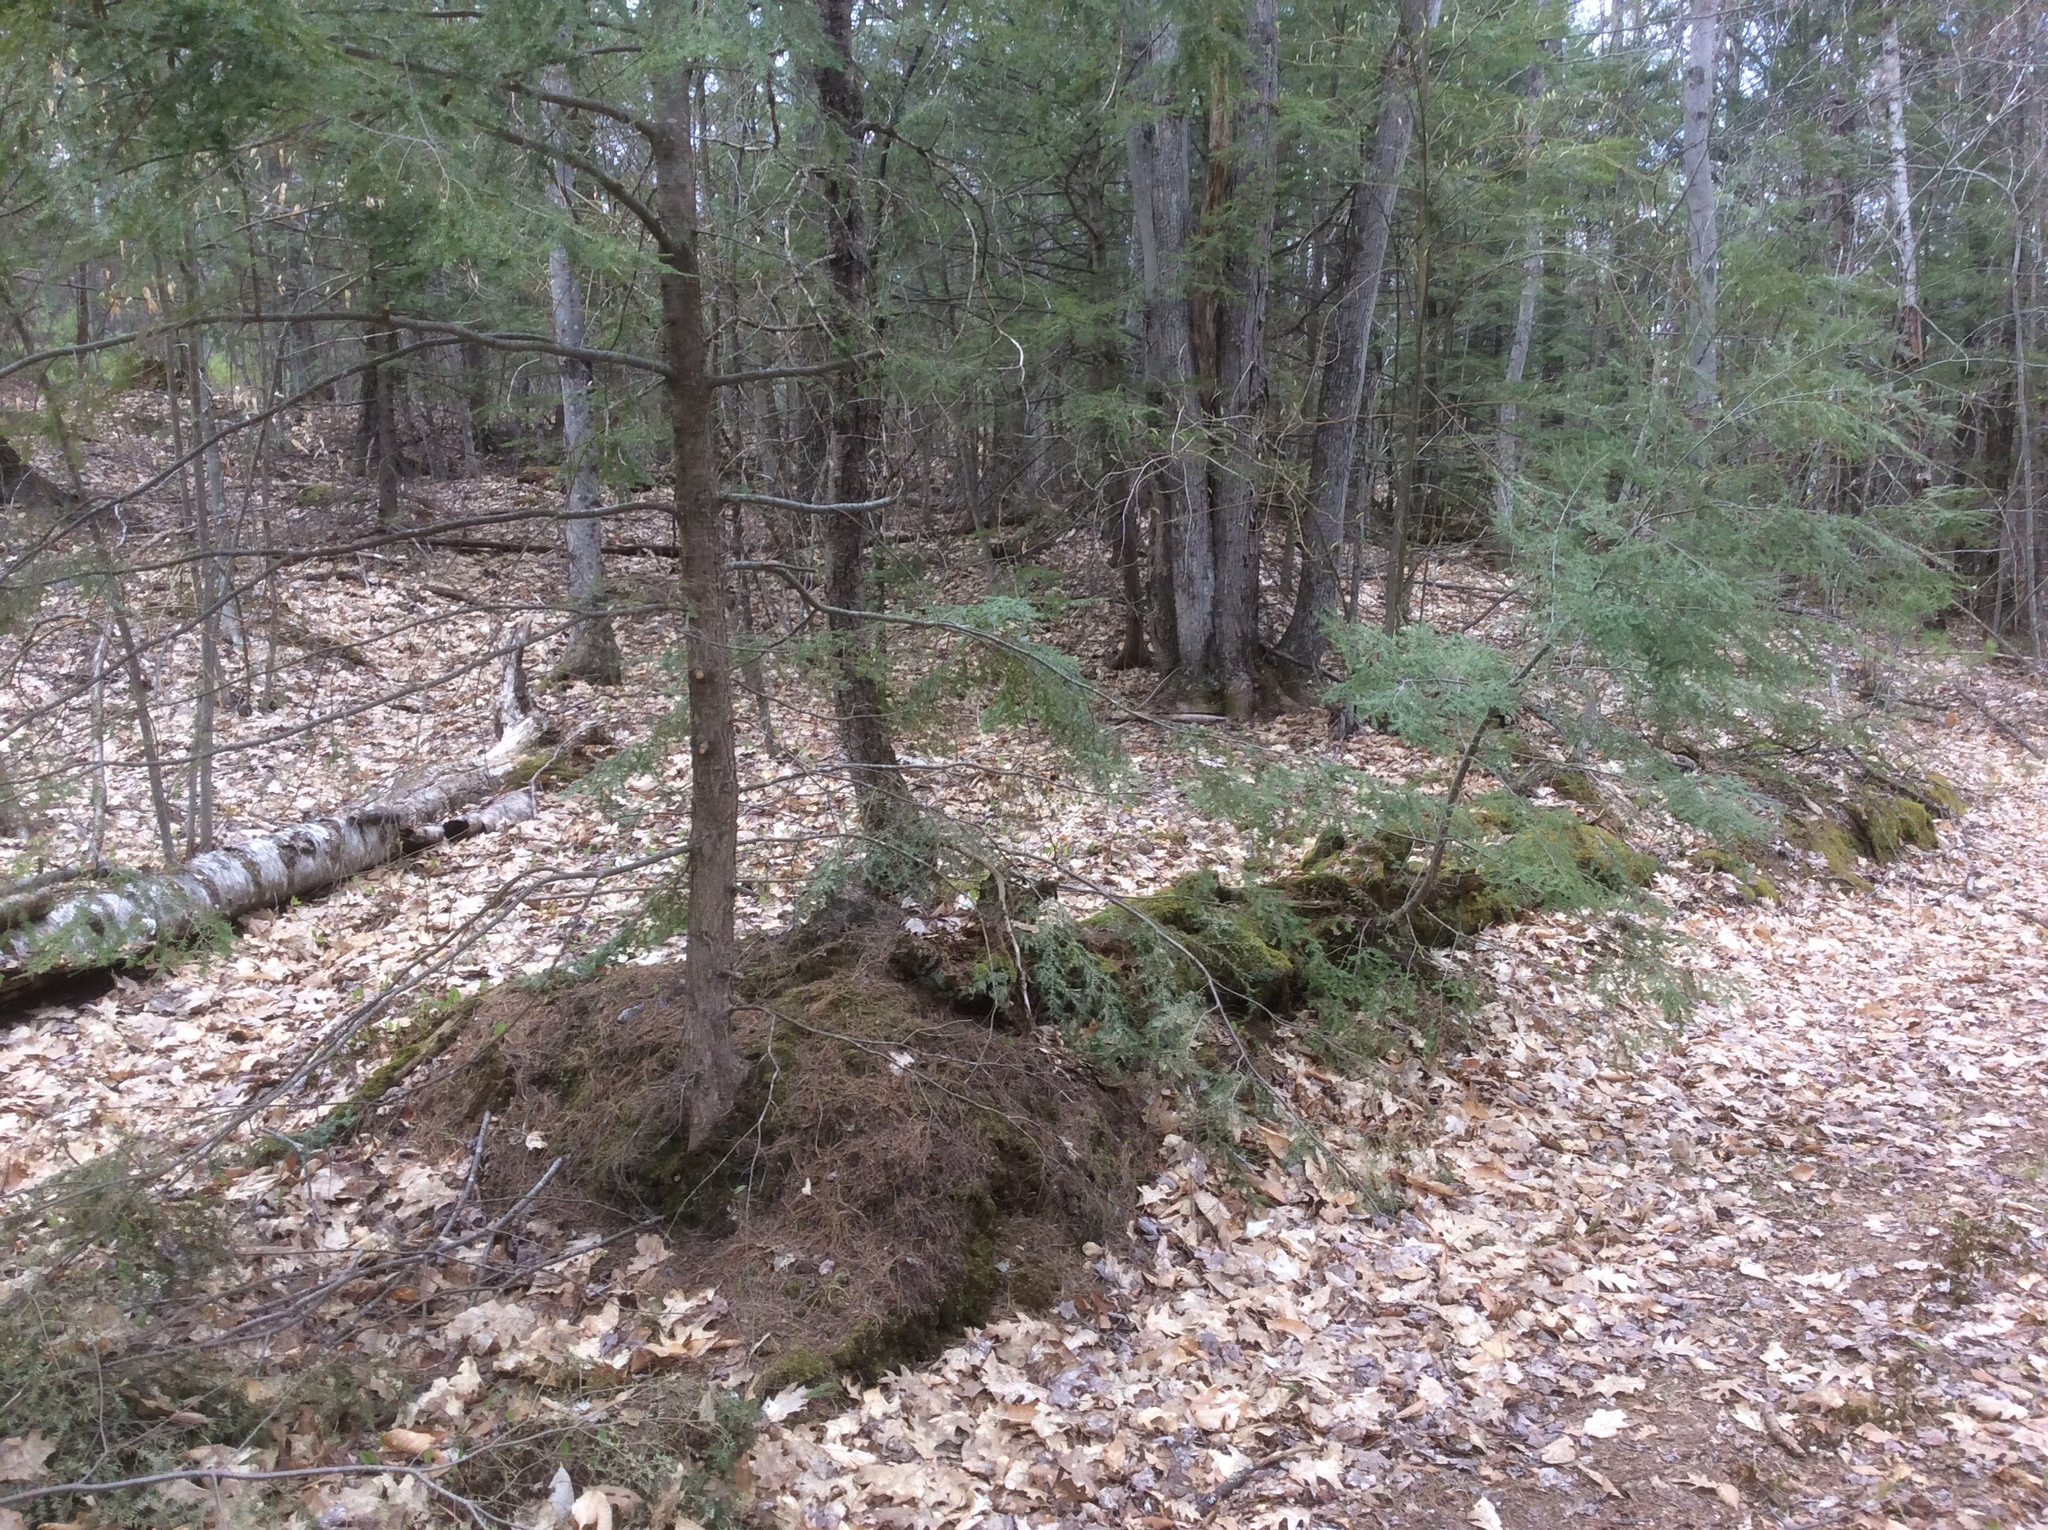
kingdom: Plantae
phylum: Tracheophyta
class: Pinopsida
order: Pinales
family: Pinaceae
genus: Tsuga
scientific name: Tsuga canadensis
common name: Eastern hemlock
